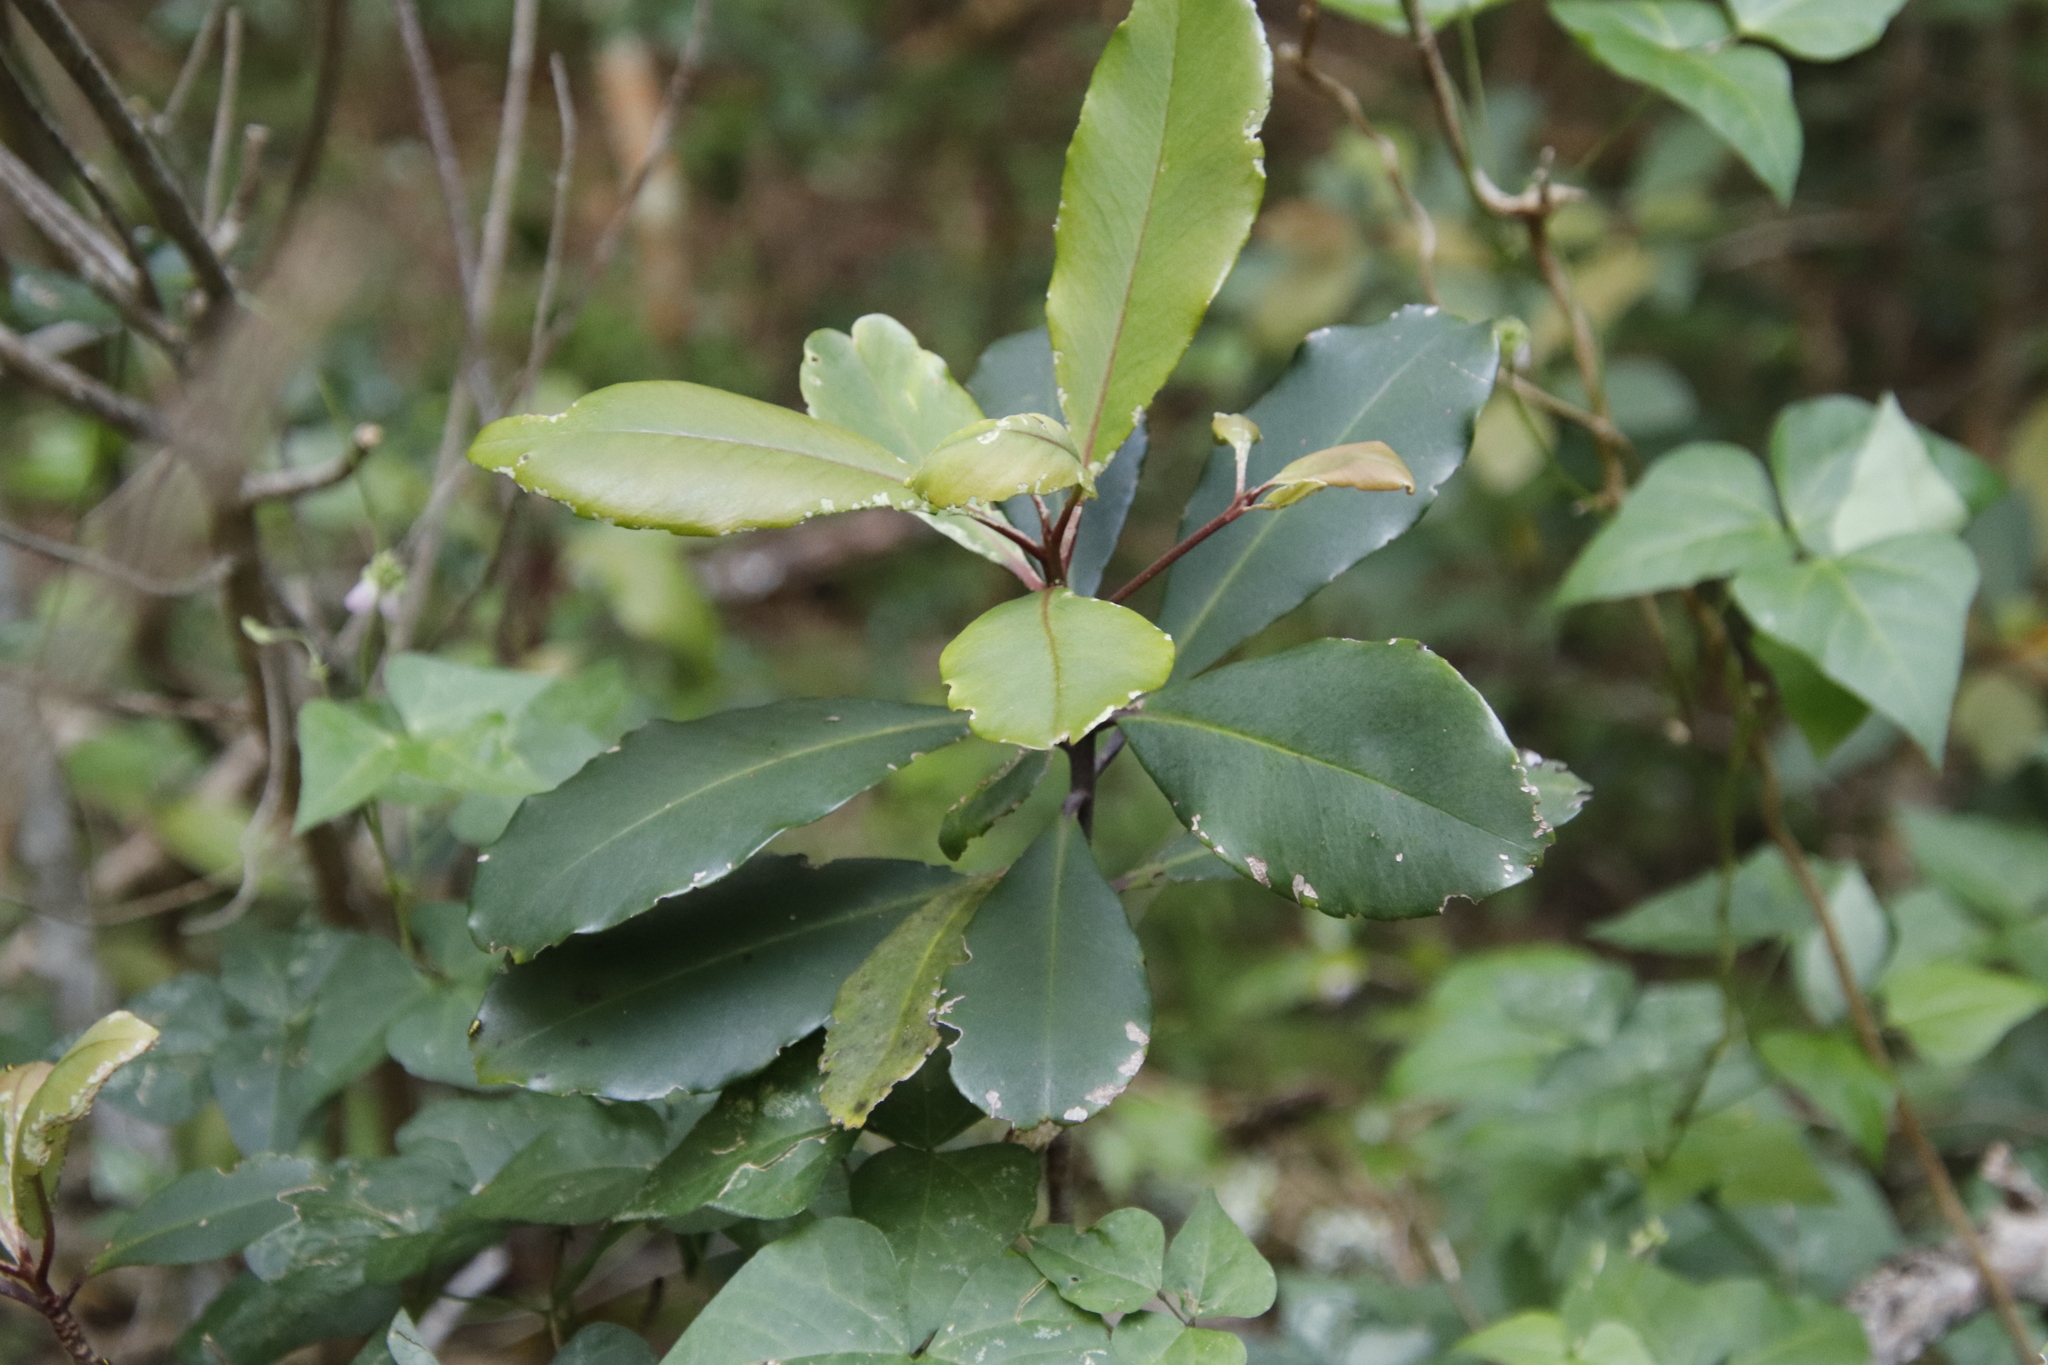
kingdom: Plantae
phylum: Tracheophyta
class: Magnoliopsida
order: Ericales
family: Primulaceae
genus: Myrsine
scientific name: Myrsine melanophloeos
